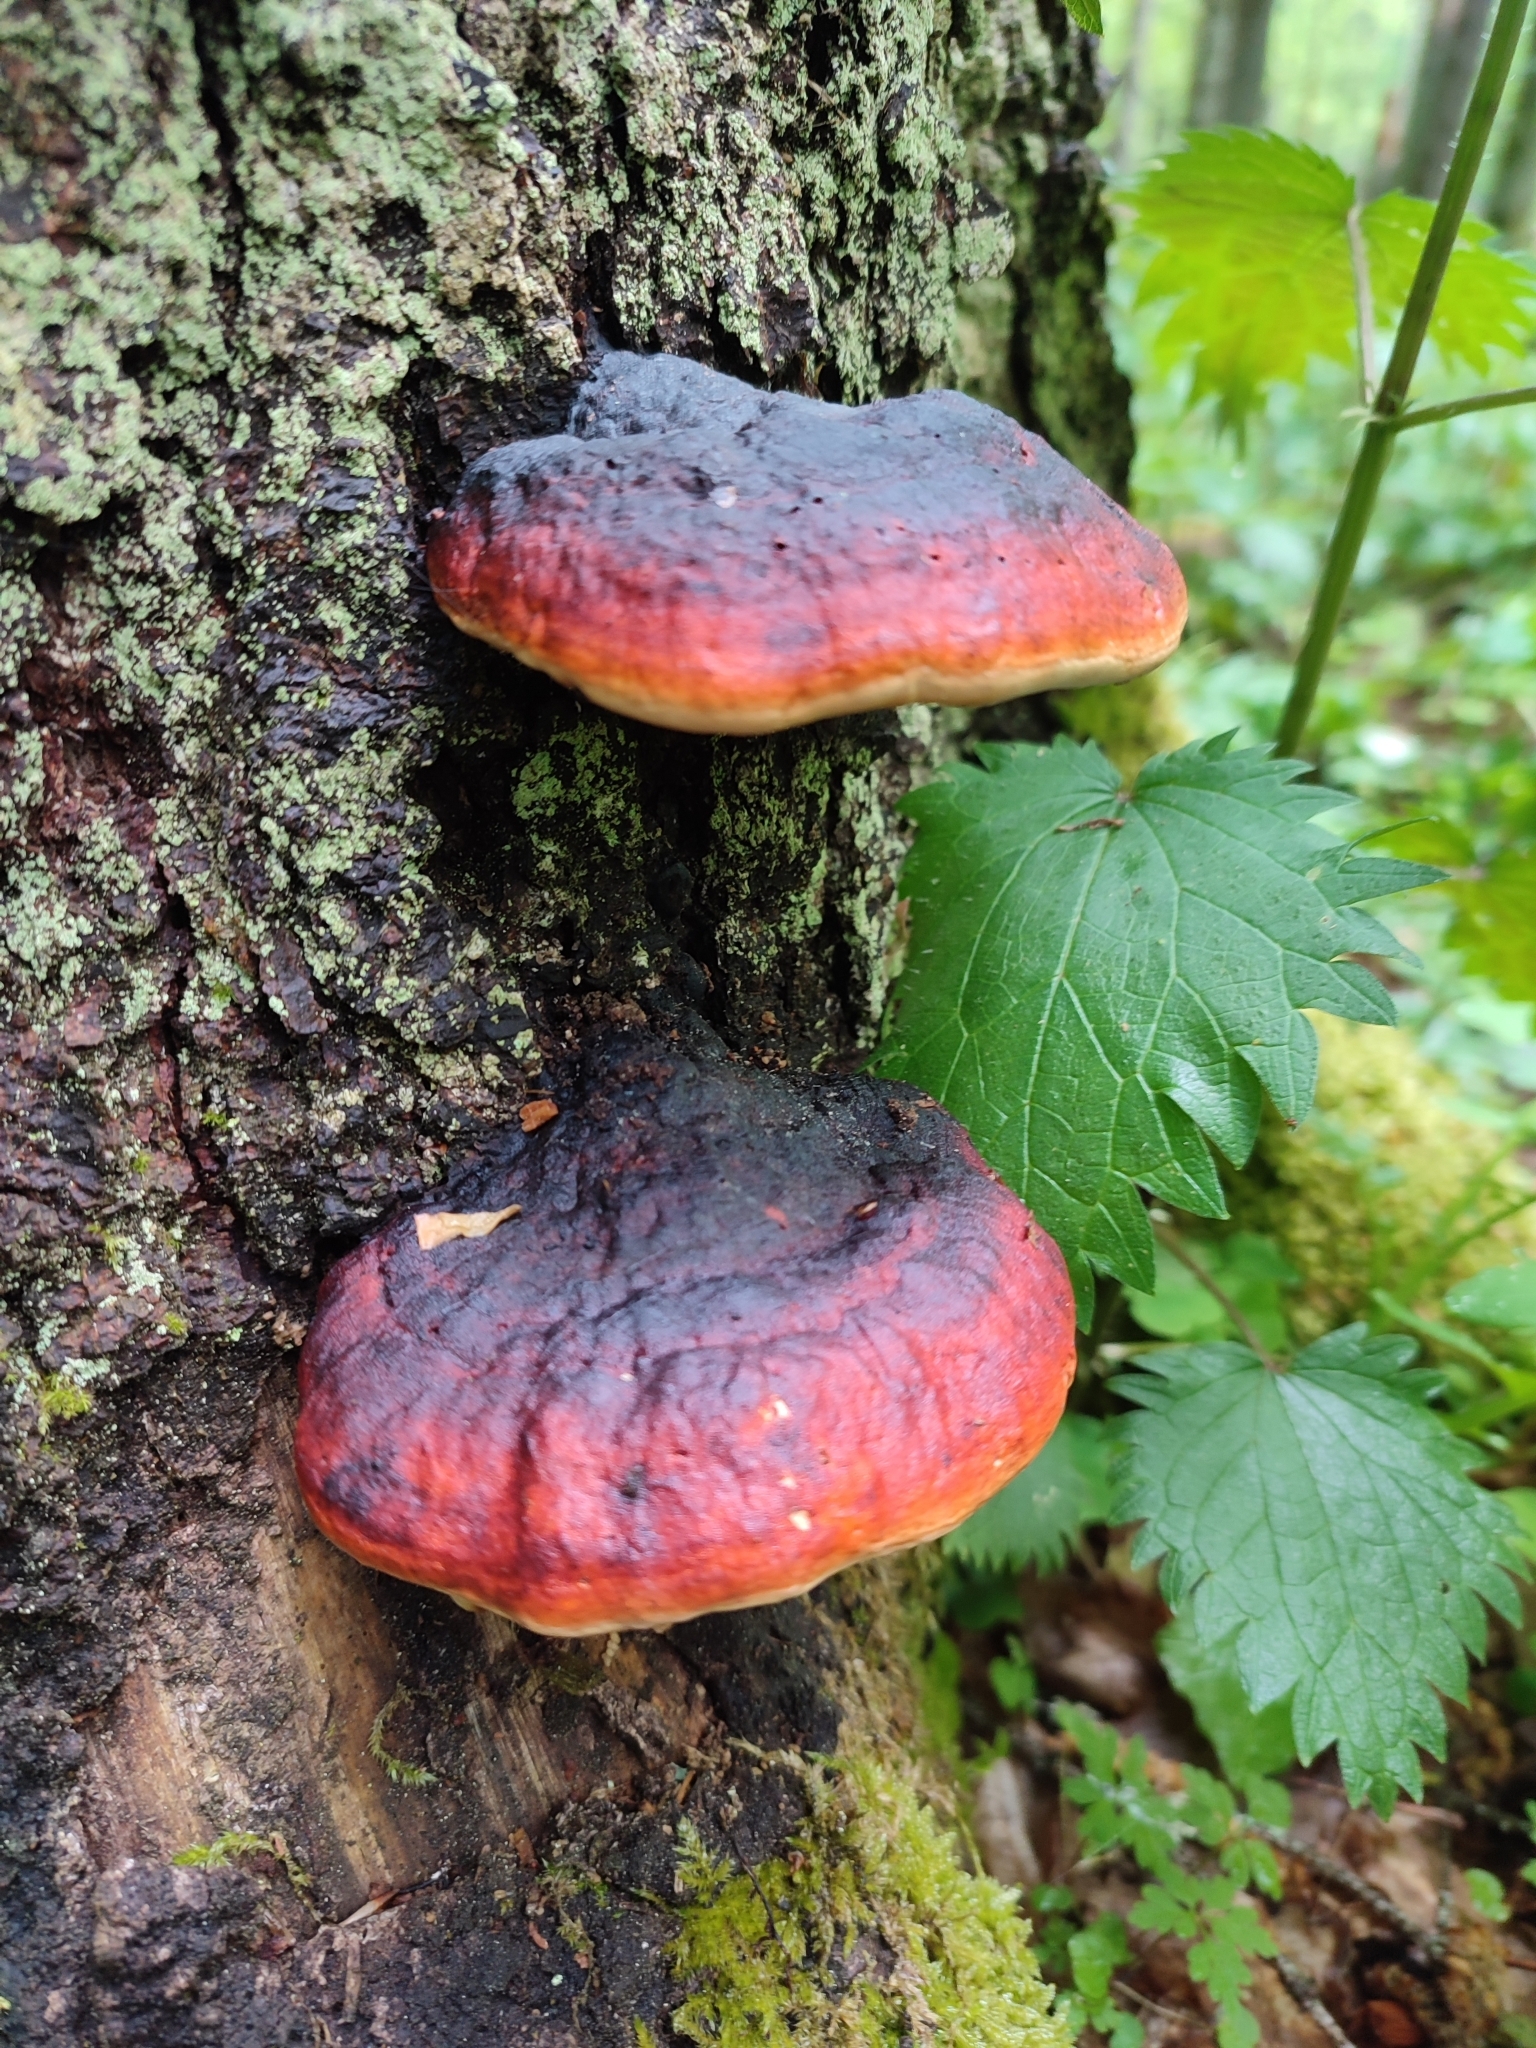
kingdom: Fungi
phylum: Basidiomycota
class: Agaricomycetes
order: Polyporales
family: Fomitopsidaceae
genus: Fomitopsis
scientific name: Fomitopsis pinicola
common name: Red-belted bracket
